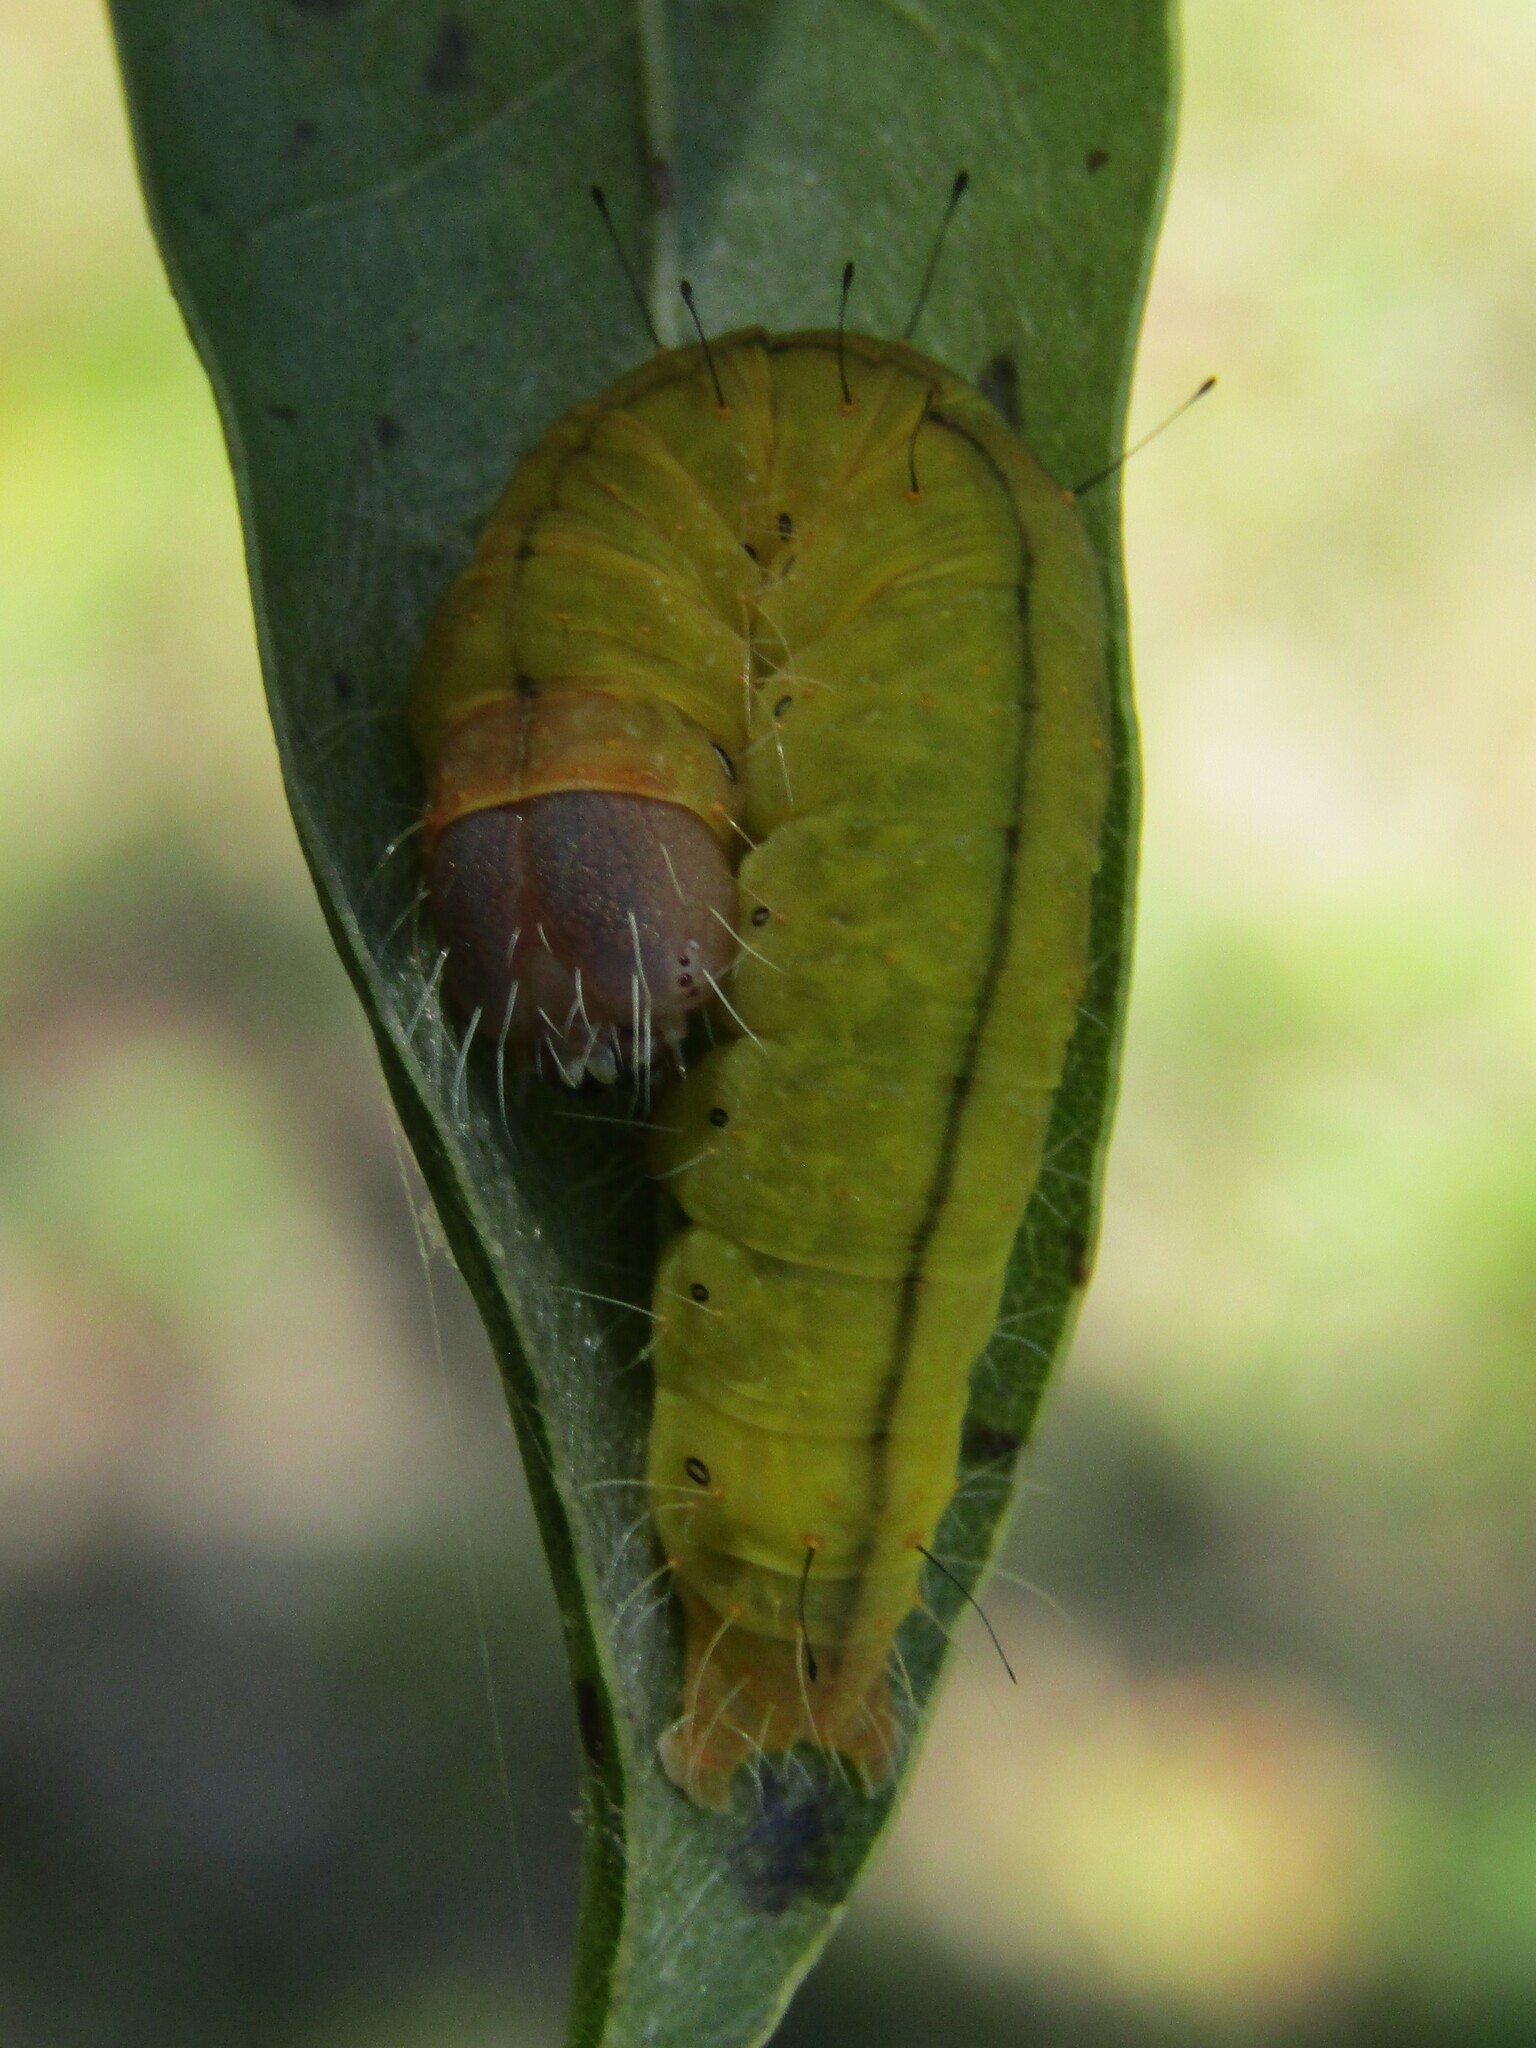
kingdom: Animalia
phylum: Arthropoda
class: Insecta
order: Lepidoptera
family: Noctuidae
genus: Acronicta
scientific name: Acronicta afflicta
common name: Afflicted dagger moth
